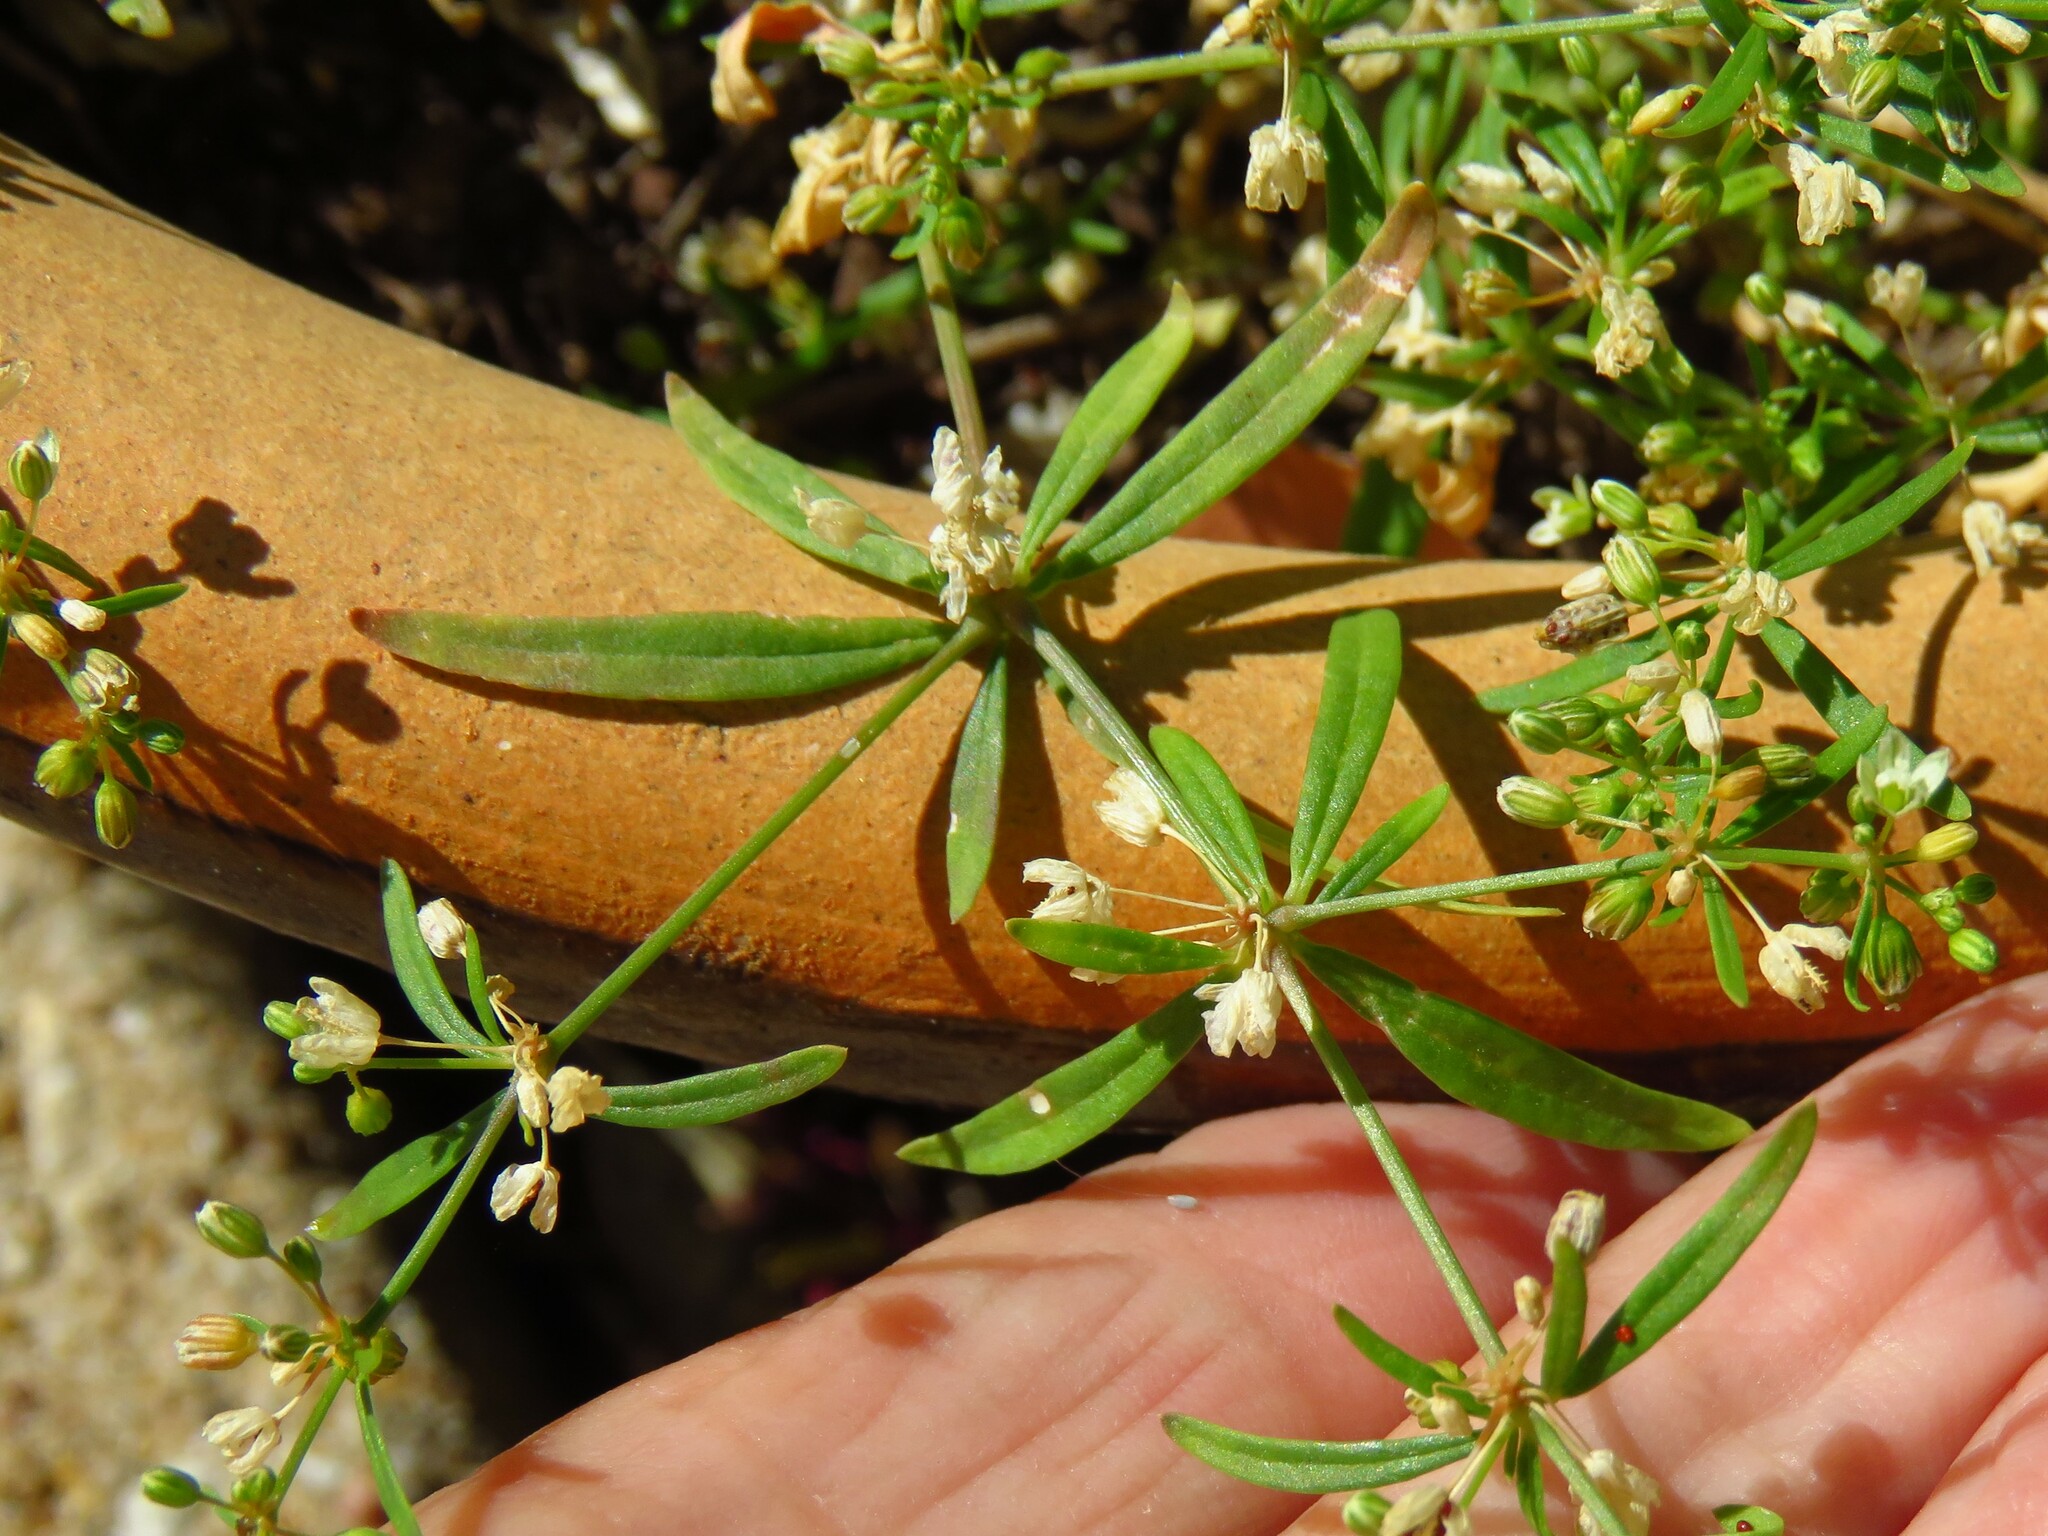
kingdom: Plantae
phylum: Tracheophyta
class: Magnoliopsida
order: Caryophyllales
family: Molluginaceae
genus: Mollugo
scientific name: Mollugo verticillata
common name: Green carpetweed
